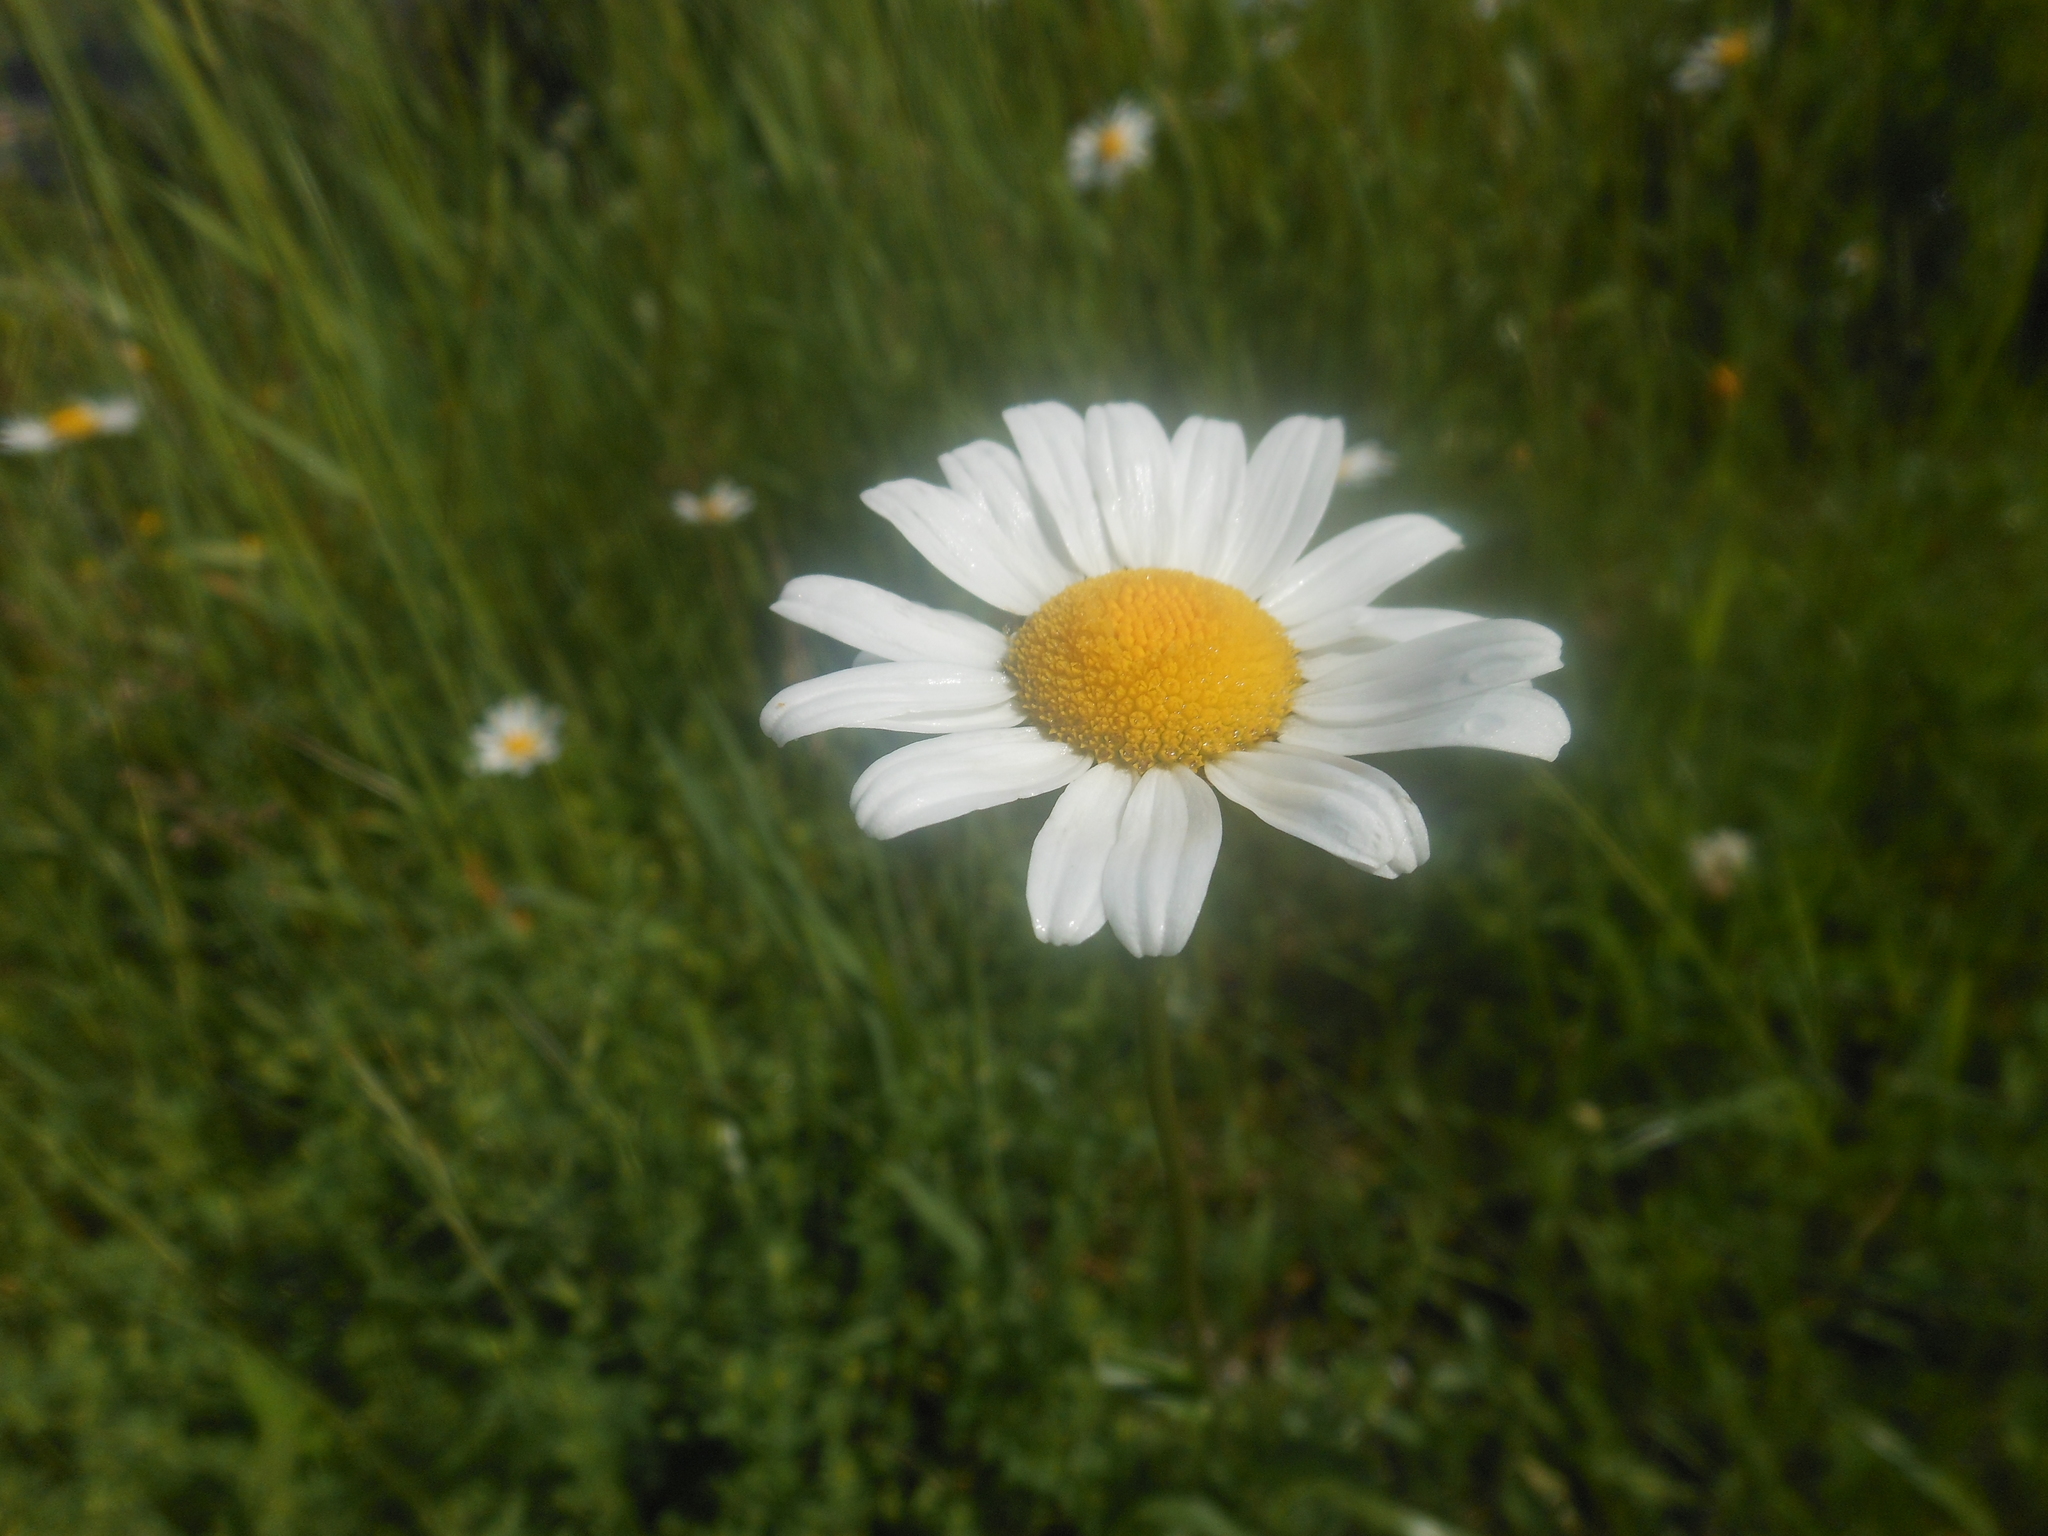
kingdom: Plantae
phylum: Tracheophyta
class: Magnoliopsida
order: Asterales
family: Asteraceae
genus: Leucanthemum
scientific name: Leucanthemum vulgare
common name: Oxeye daisy
